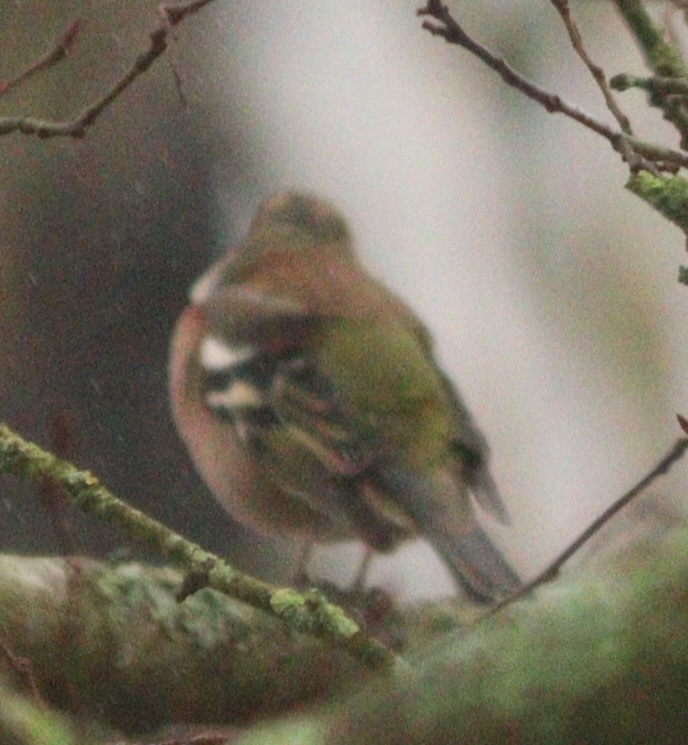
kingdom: Animalia
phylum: Chordata
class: Aves
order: Passeriformes
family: Fringillidae
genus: Fringilla
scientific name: Fringilla coelebs
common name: Common chaffinch
